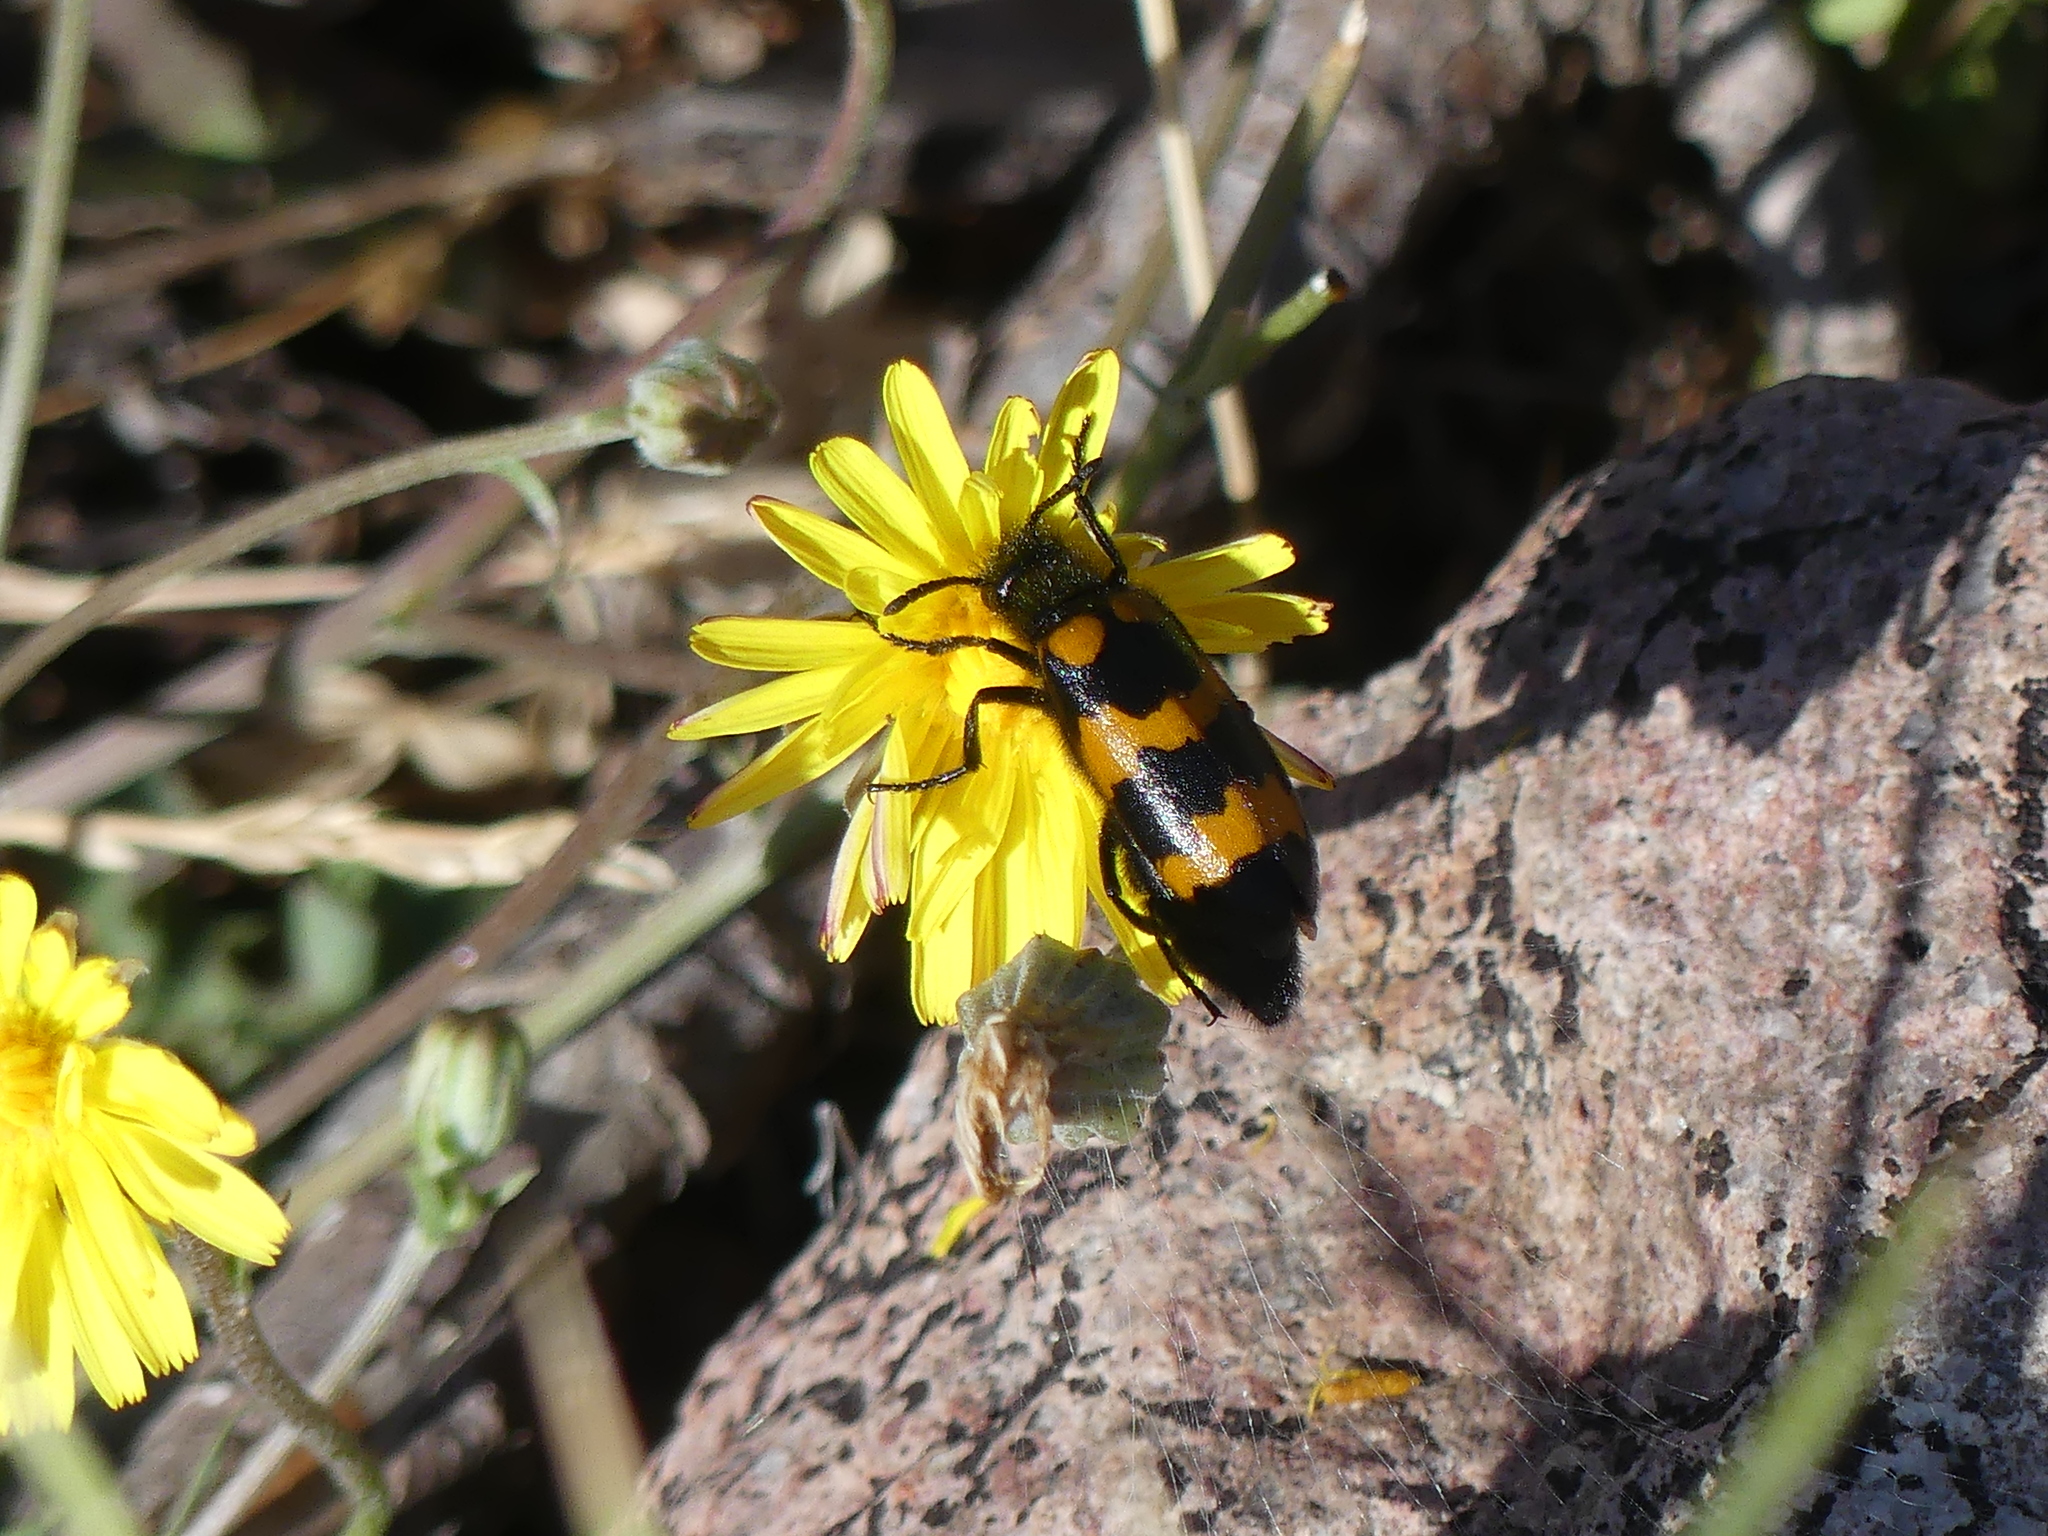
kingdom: Animalia
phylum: Arthropoda
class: Insecta
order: Coleoptera
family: Meloidae
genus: Mylabris
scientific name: Mylabris variabilis
